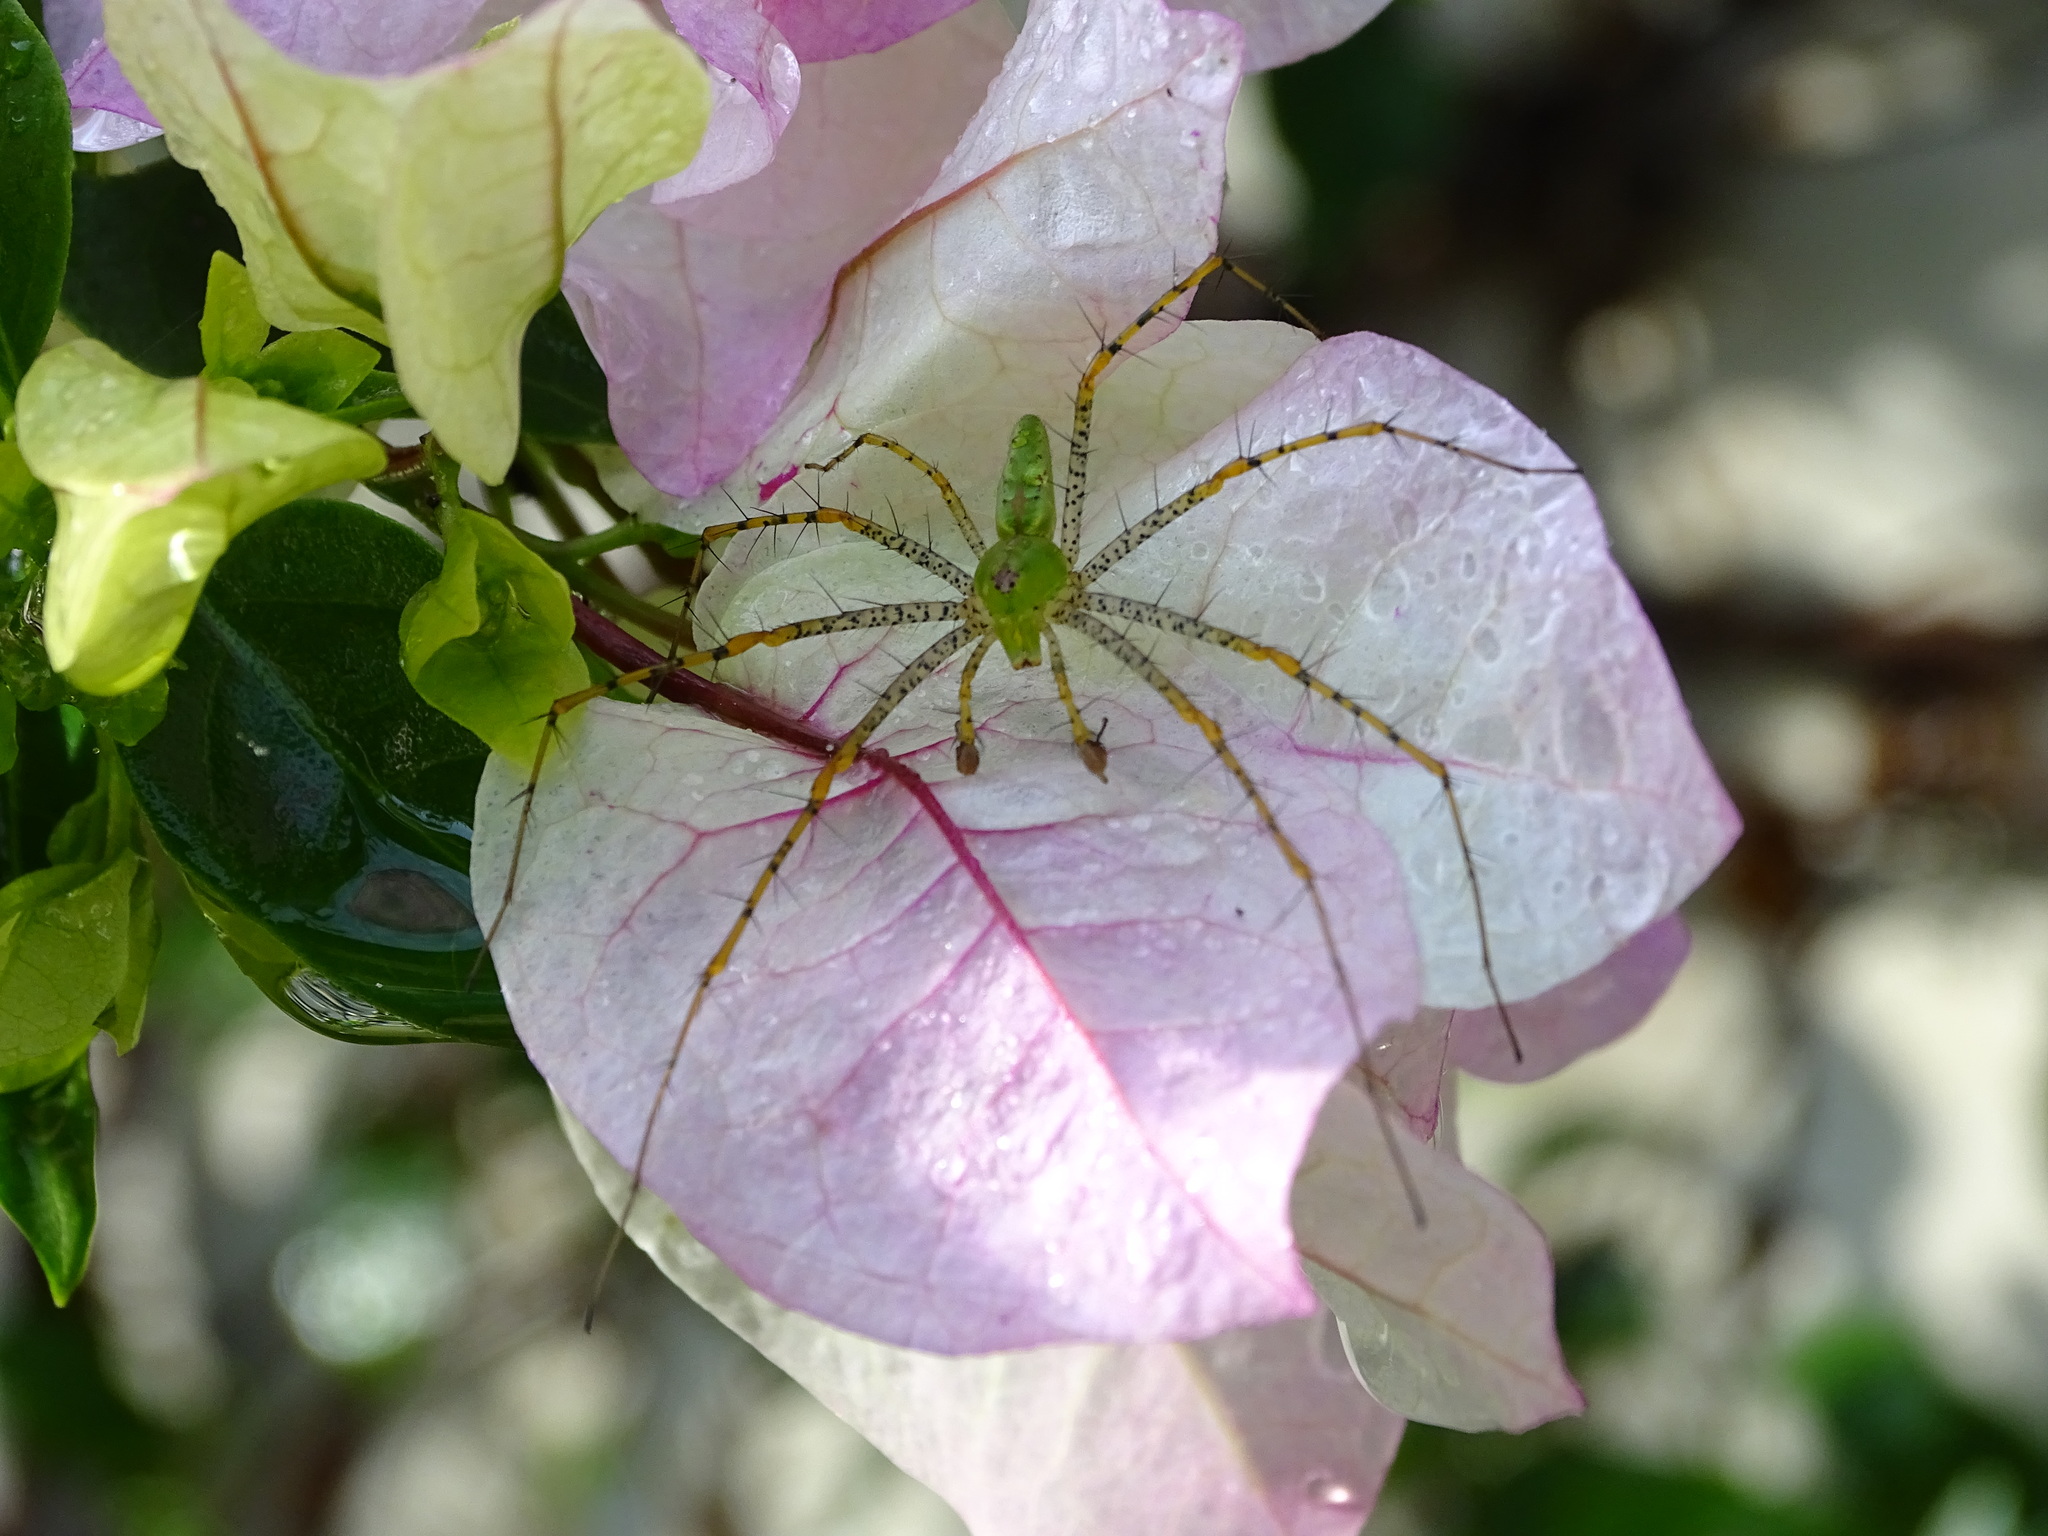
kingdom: Animalia
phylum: Arthropoda
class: Arachnida
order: Araneae
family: Oxyopidae
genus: Peucetia
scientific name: Peucetia viridans
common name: Lynx spiders
